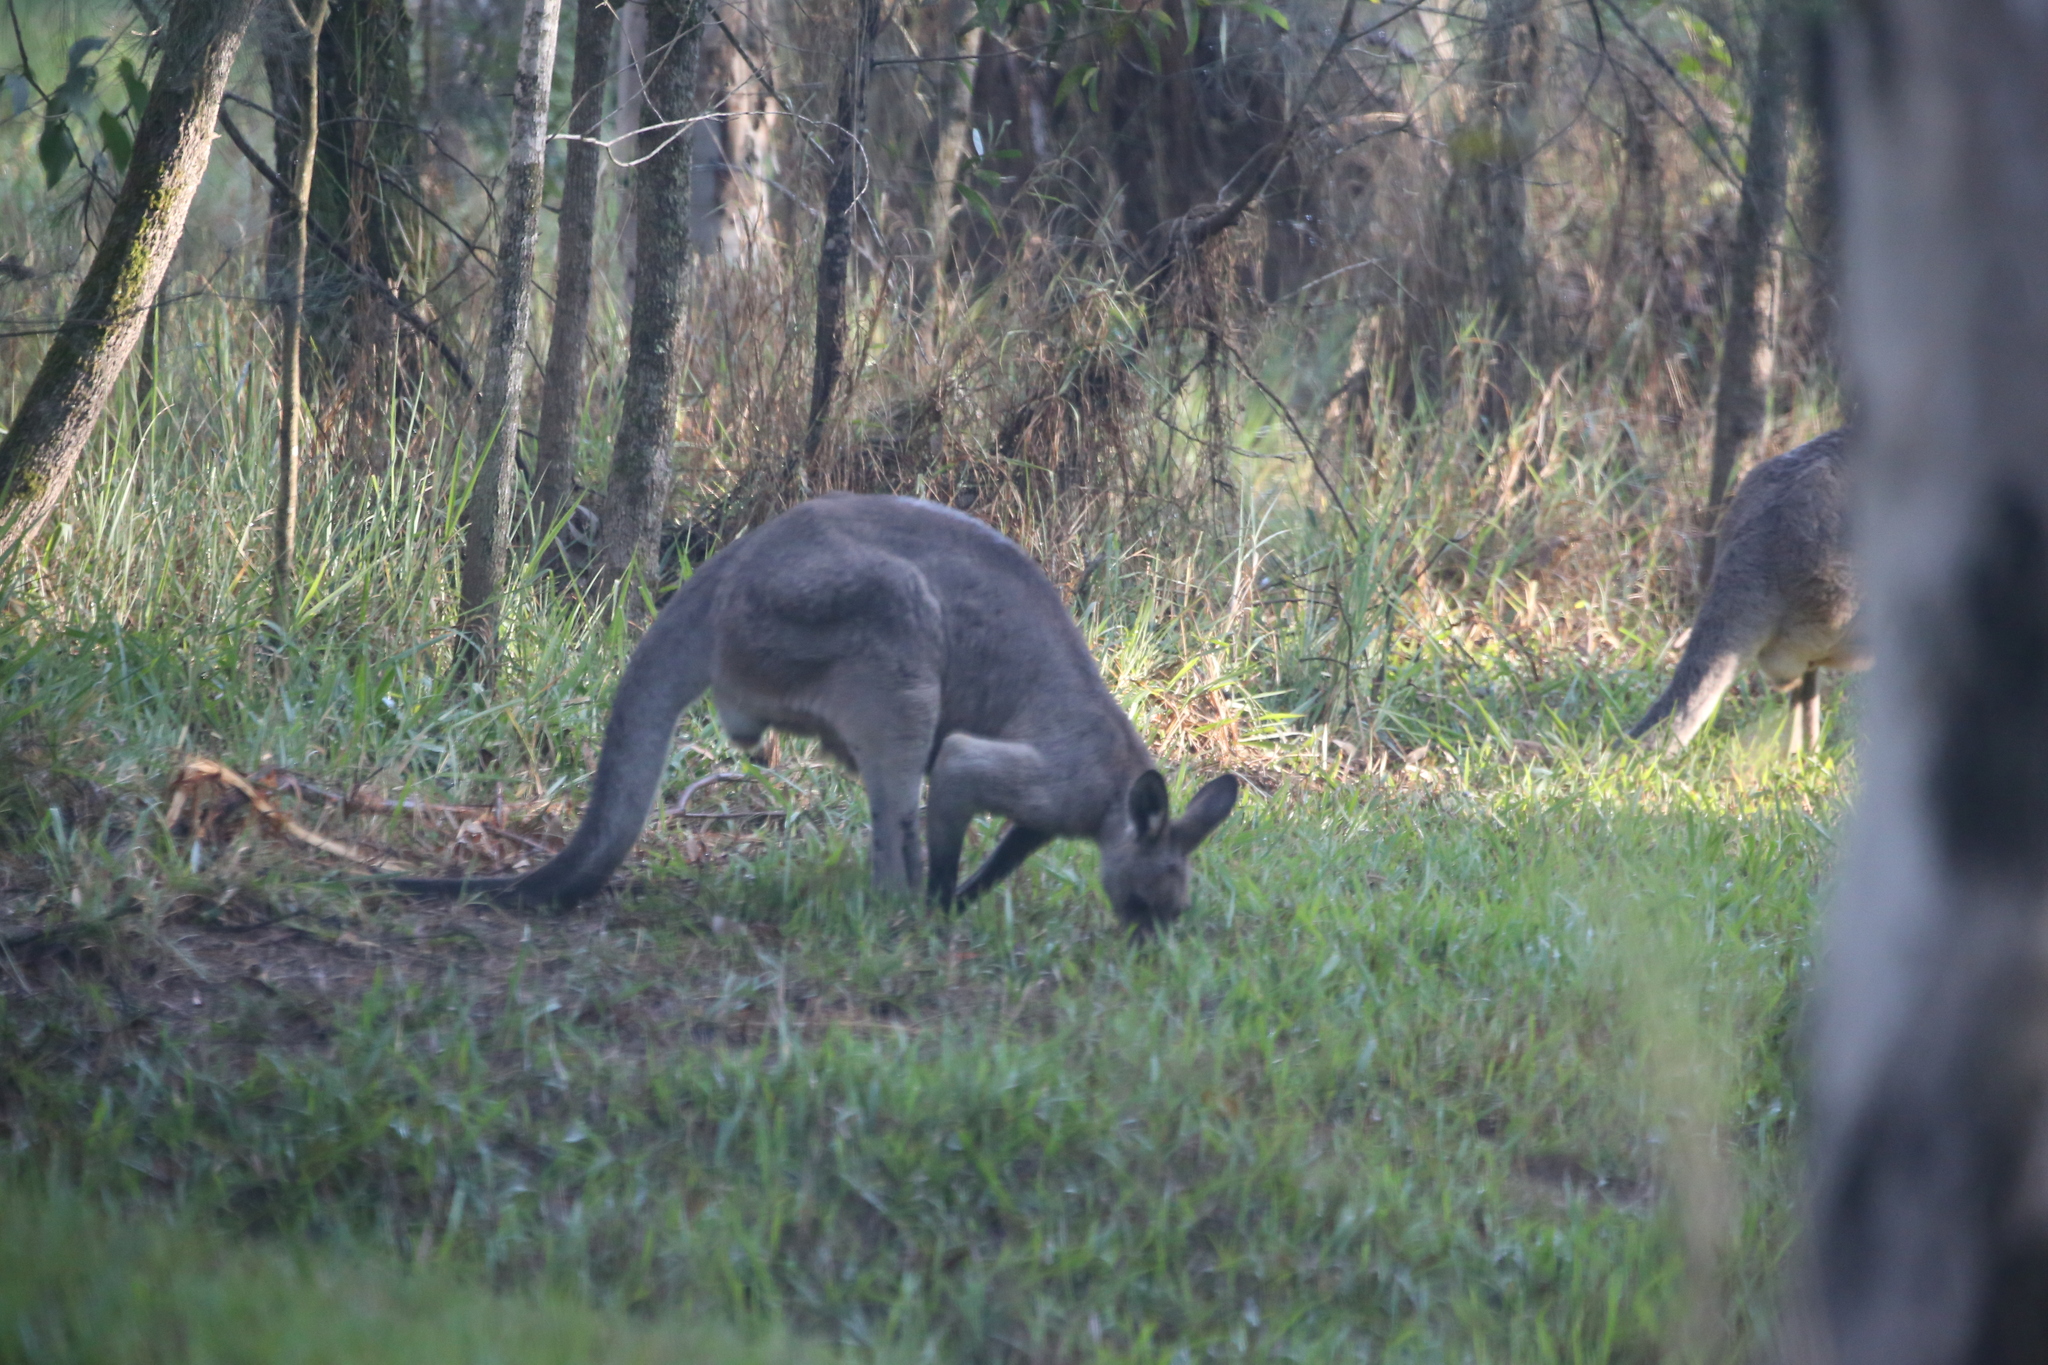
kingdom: Animalia
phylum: Chordata
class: Mammalia
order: Diprotodontia
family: Macropodidae
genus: Macropus
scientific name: Macropus giganteus
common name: Eastern grey kangaroo
